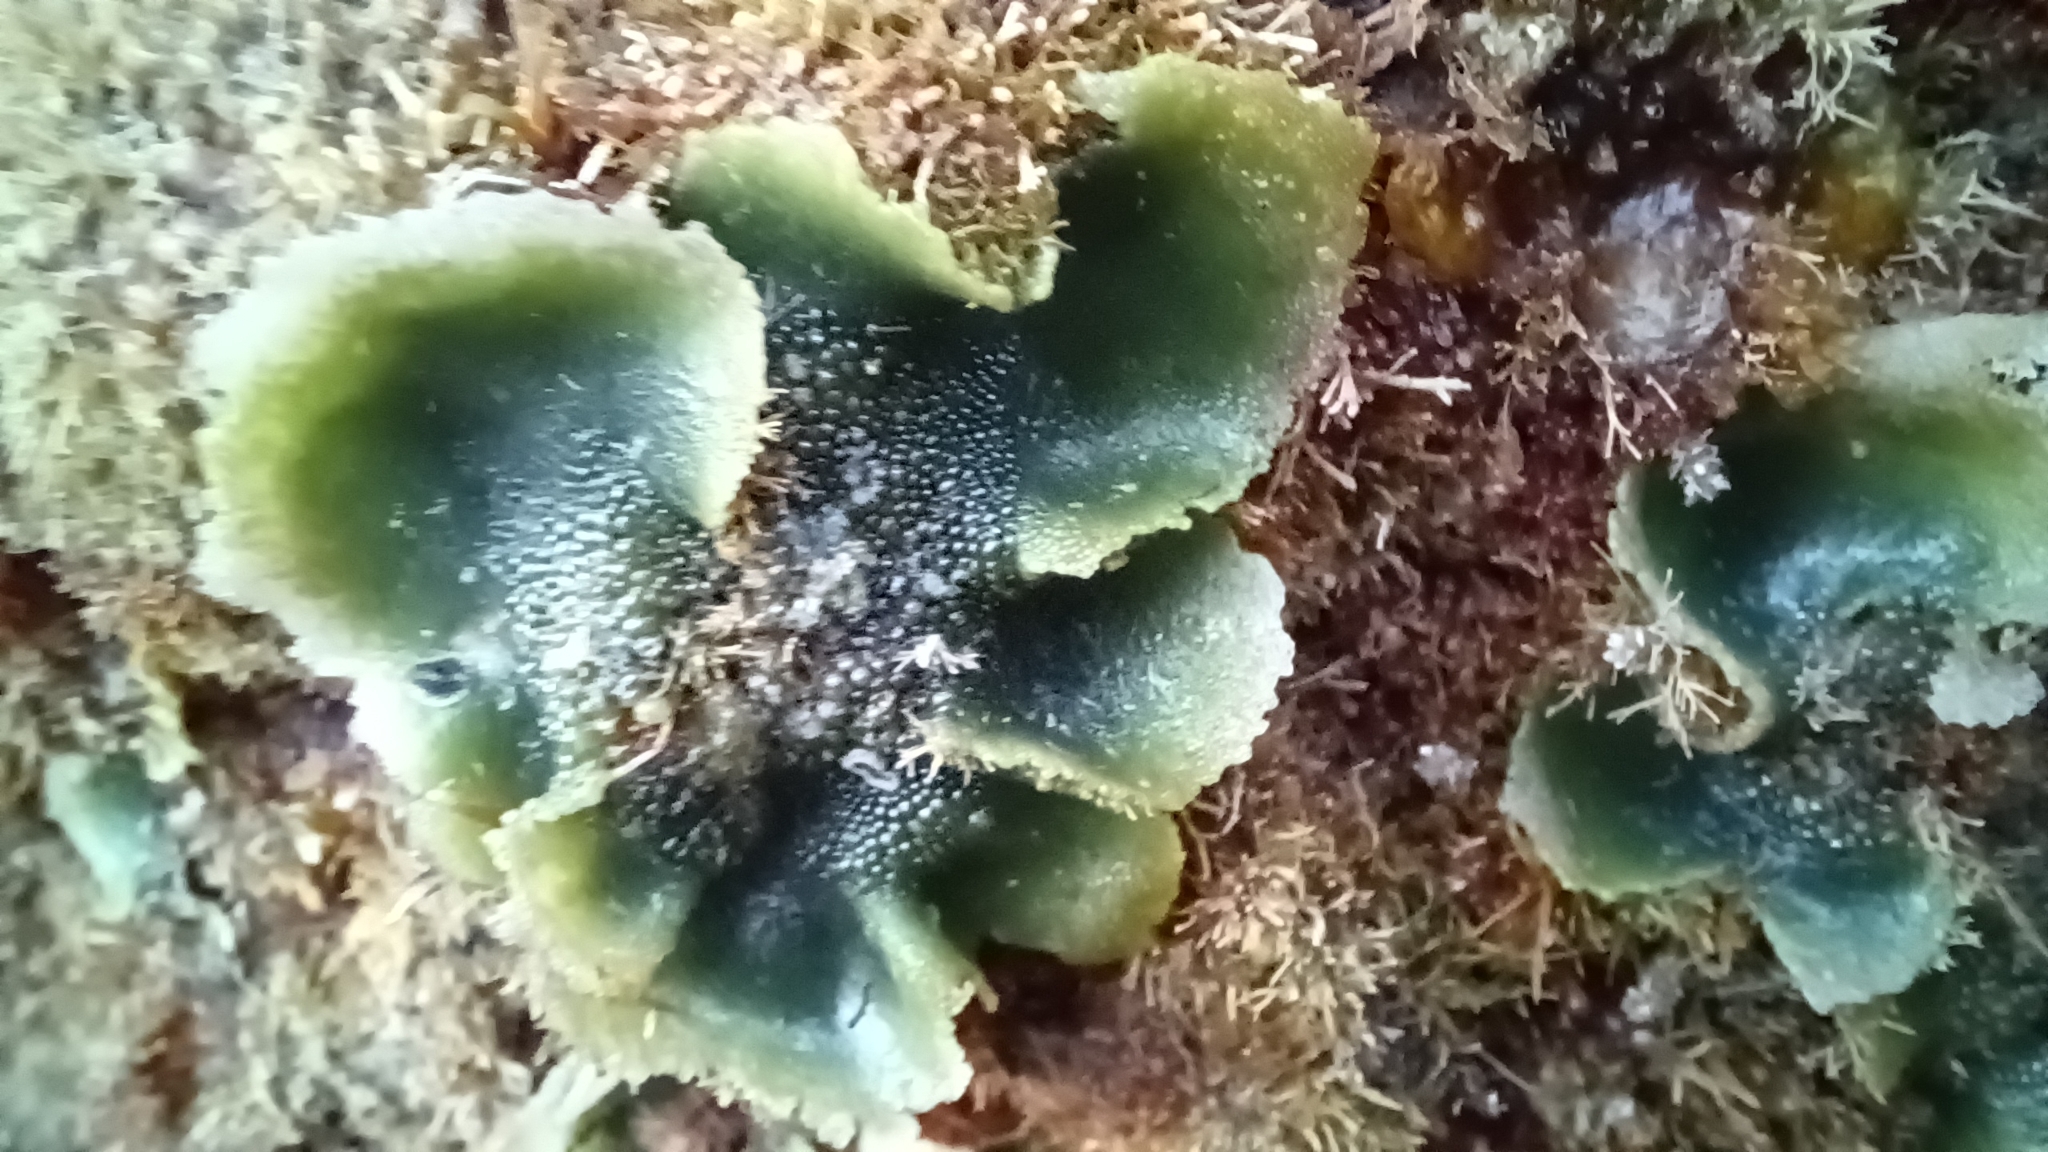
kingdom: Plantae
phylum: Chlorophyta
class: Ulvophyceae
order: Siphonocladales
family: Siphonocladaceae
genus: Dictyosphaeria
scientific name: Dictyosphaeria
